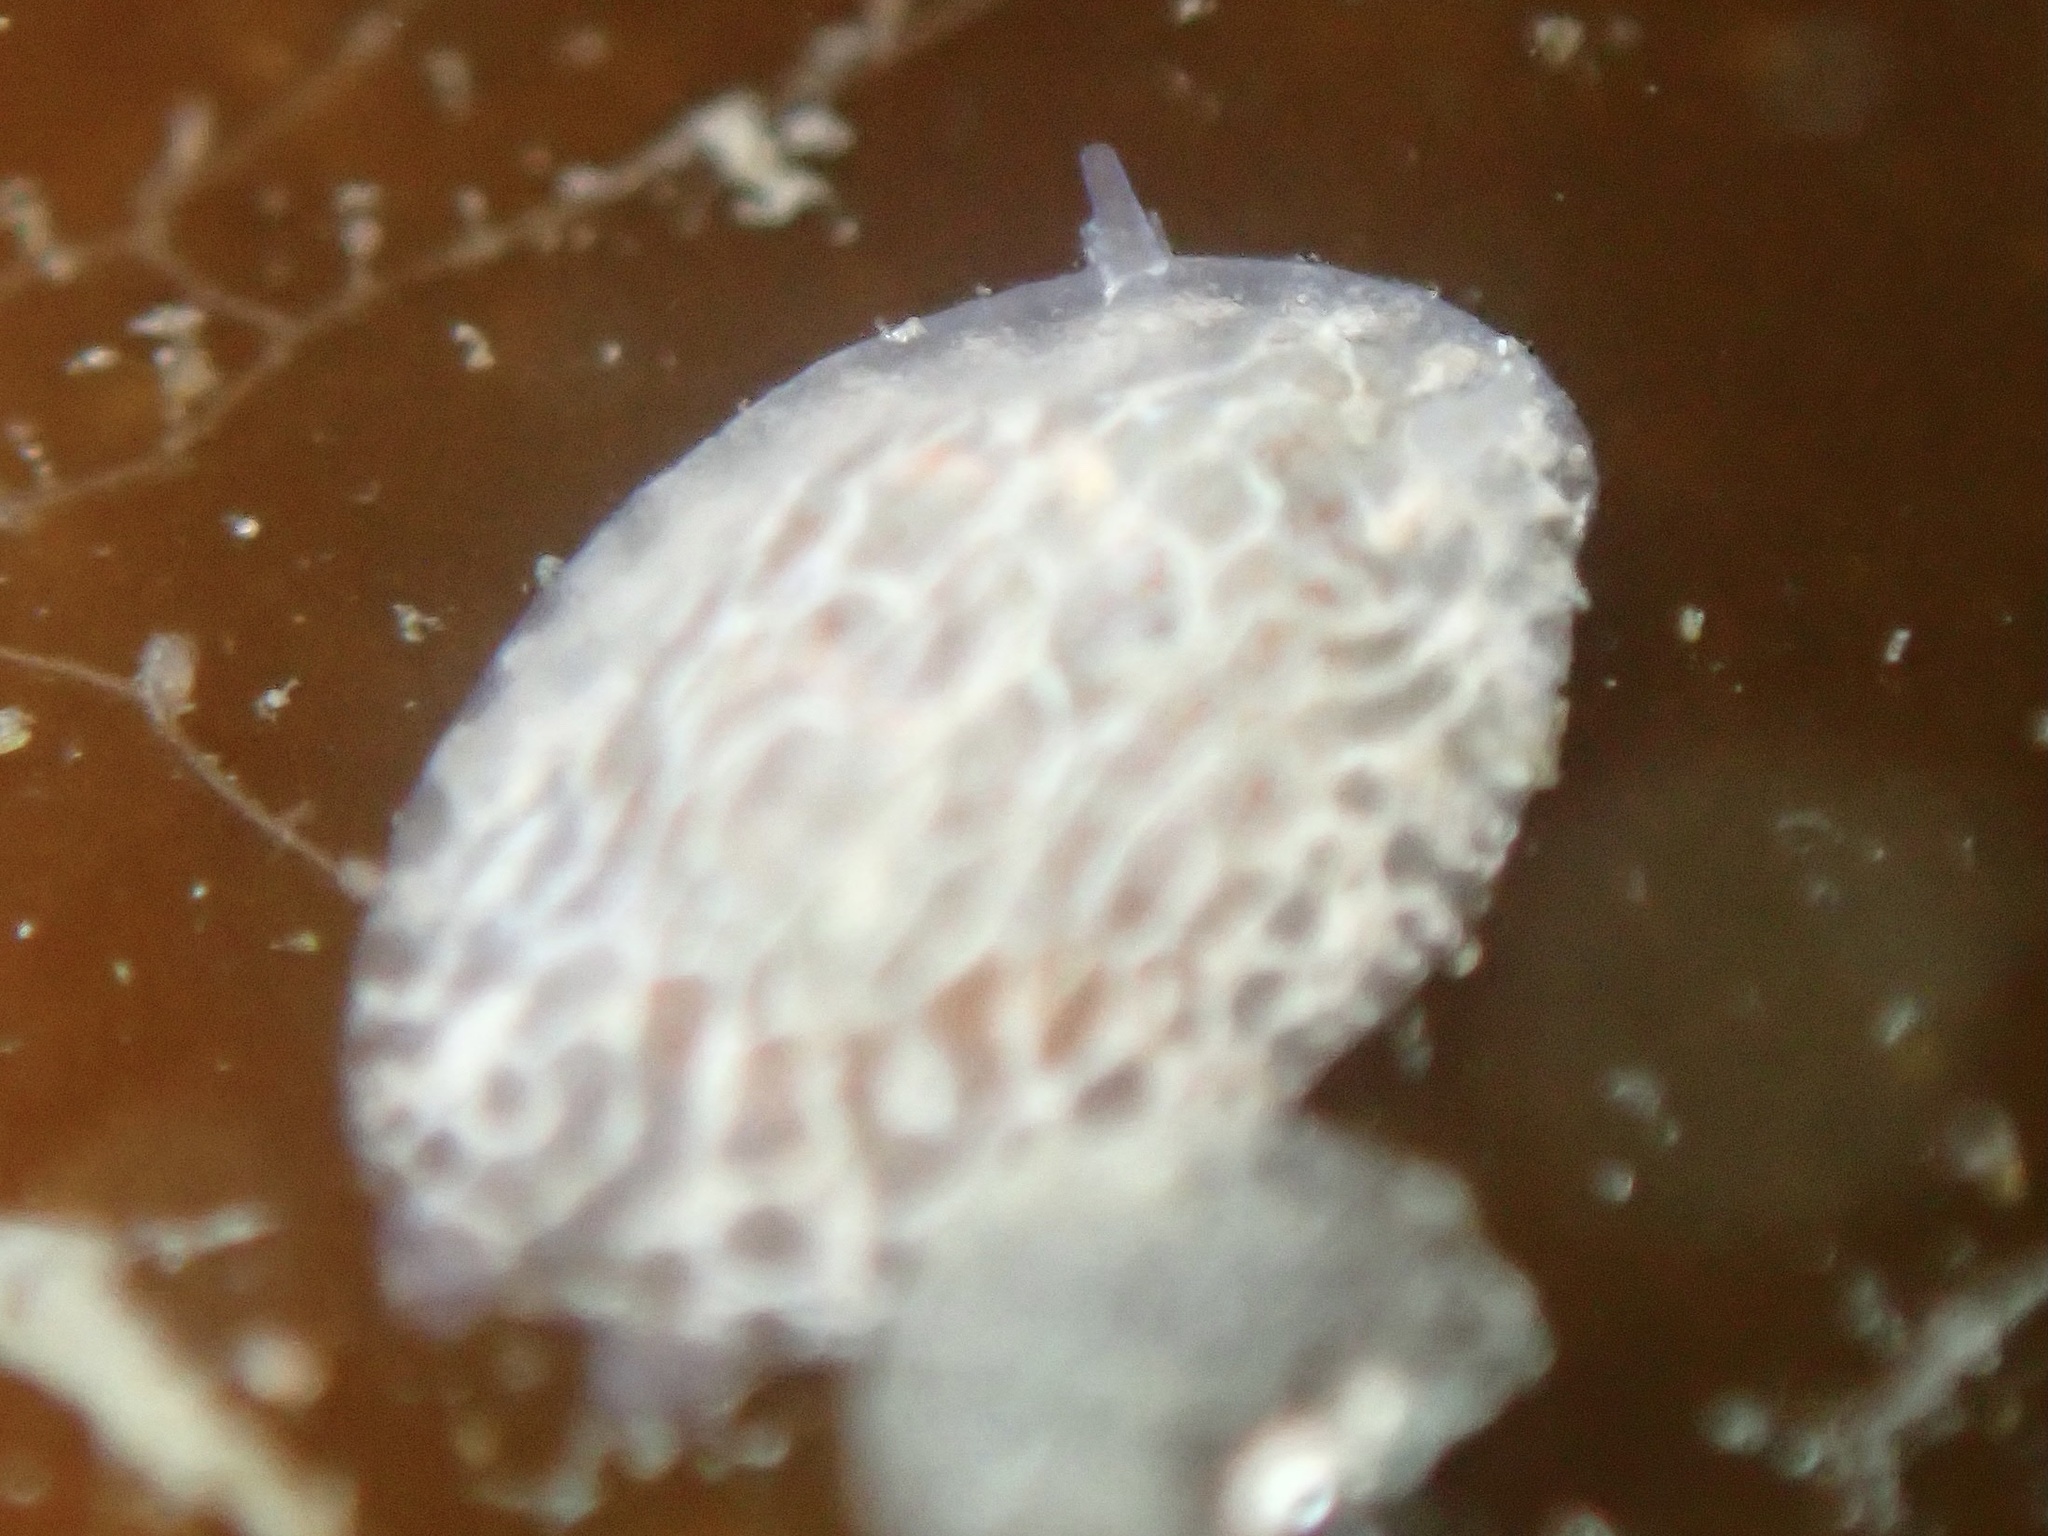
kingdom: Animalia
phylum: Mollusca
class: Gastropoda
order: Nudibranchia
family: Corambidae
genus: Corambe
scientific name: Corambe pacifica
